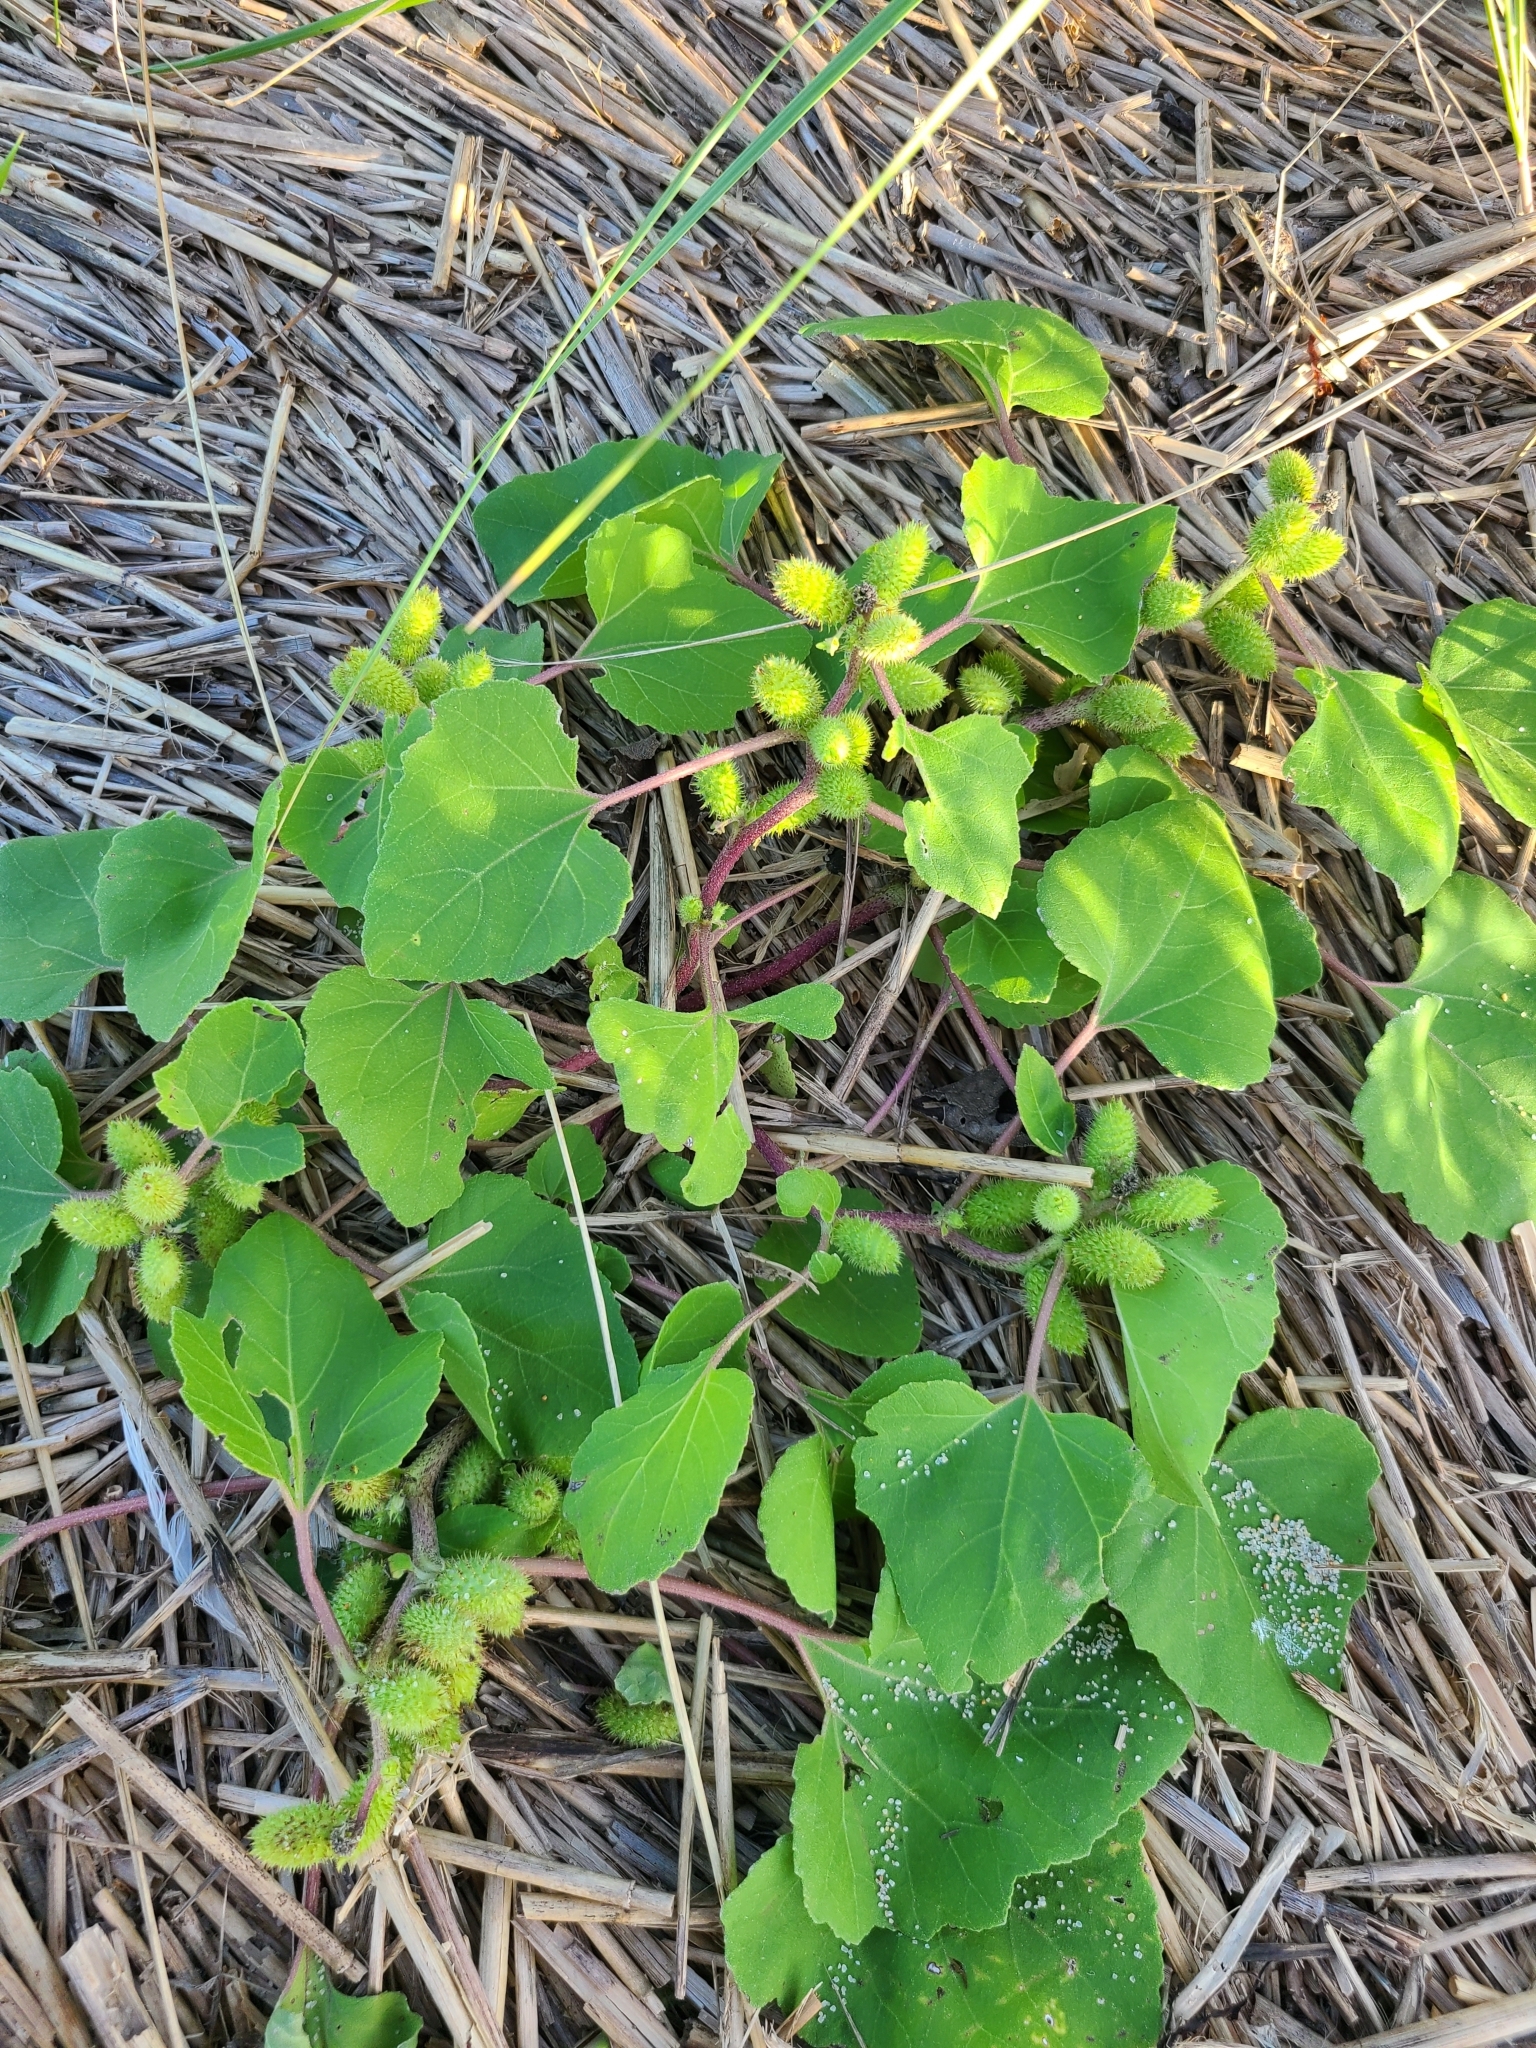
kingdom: Plantae
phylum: Tracheophyta
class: Magnoliopsida
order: Asterales
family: Asteraceae
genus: Xanthium
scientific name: Xanthium orientale
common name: Californian burr
